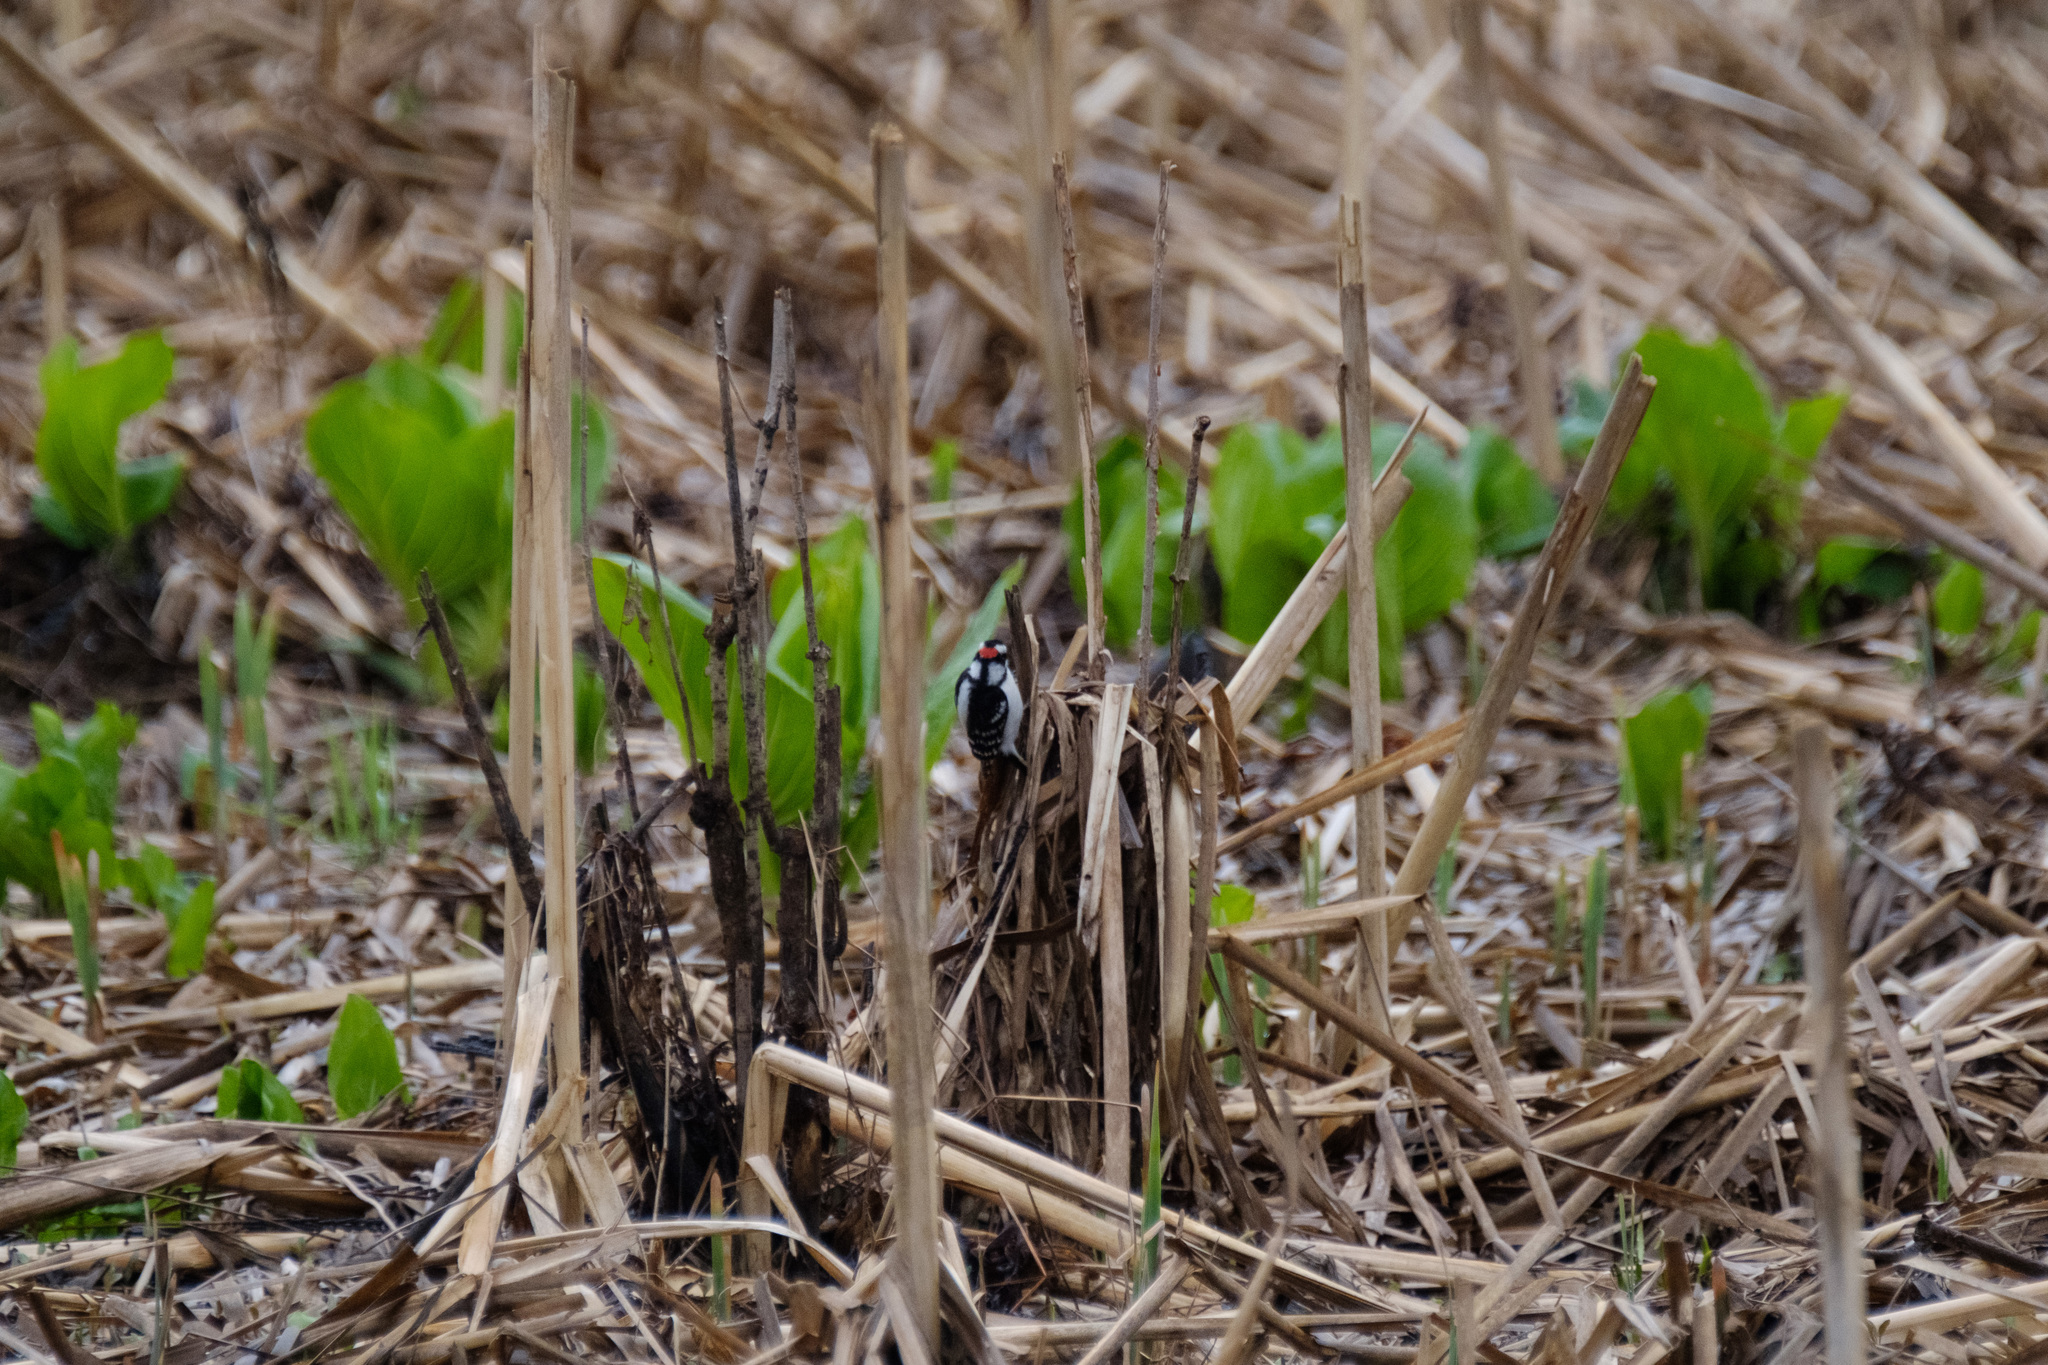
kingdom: Plantae
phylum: Tracheophyta
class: Liliopsida
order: Alismatales
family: Araceae
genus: Symplocarpus
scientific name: Symplocarpus foetidus
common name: Eastern skunk cabbage
